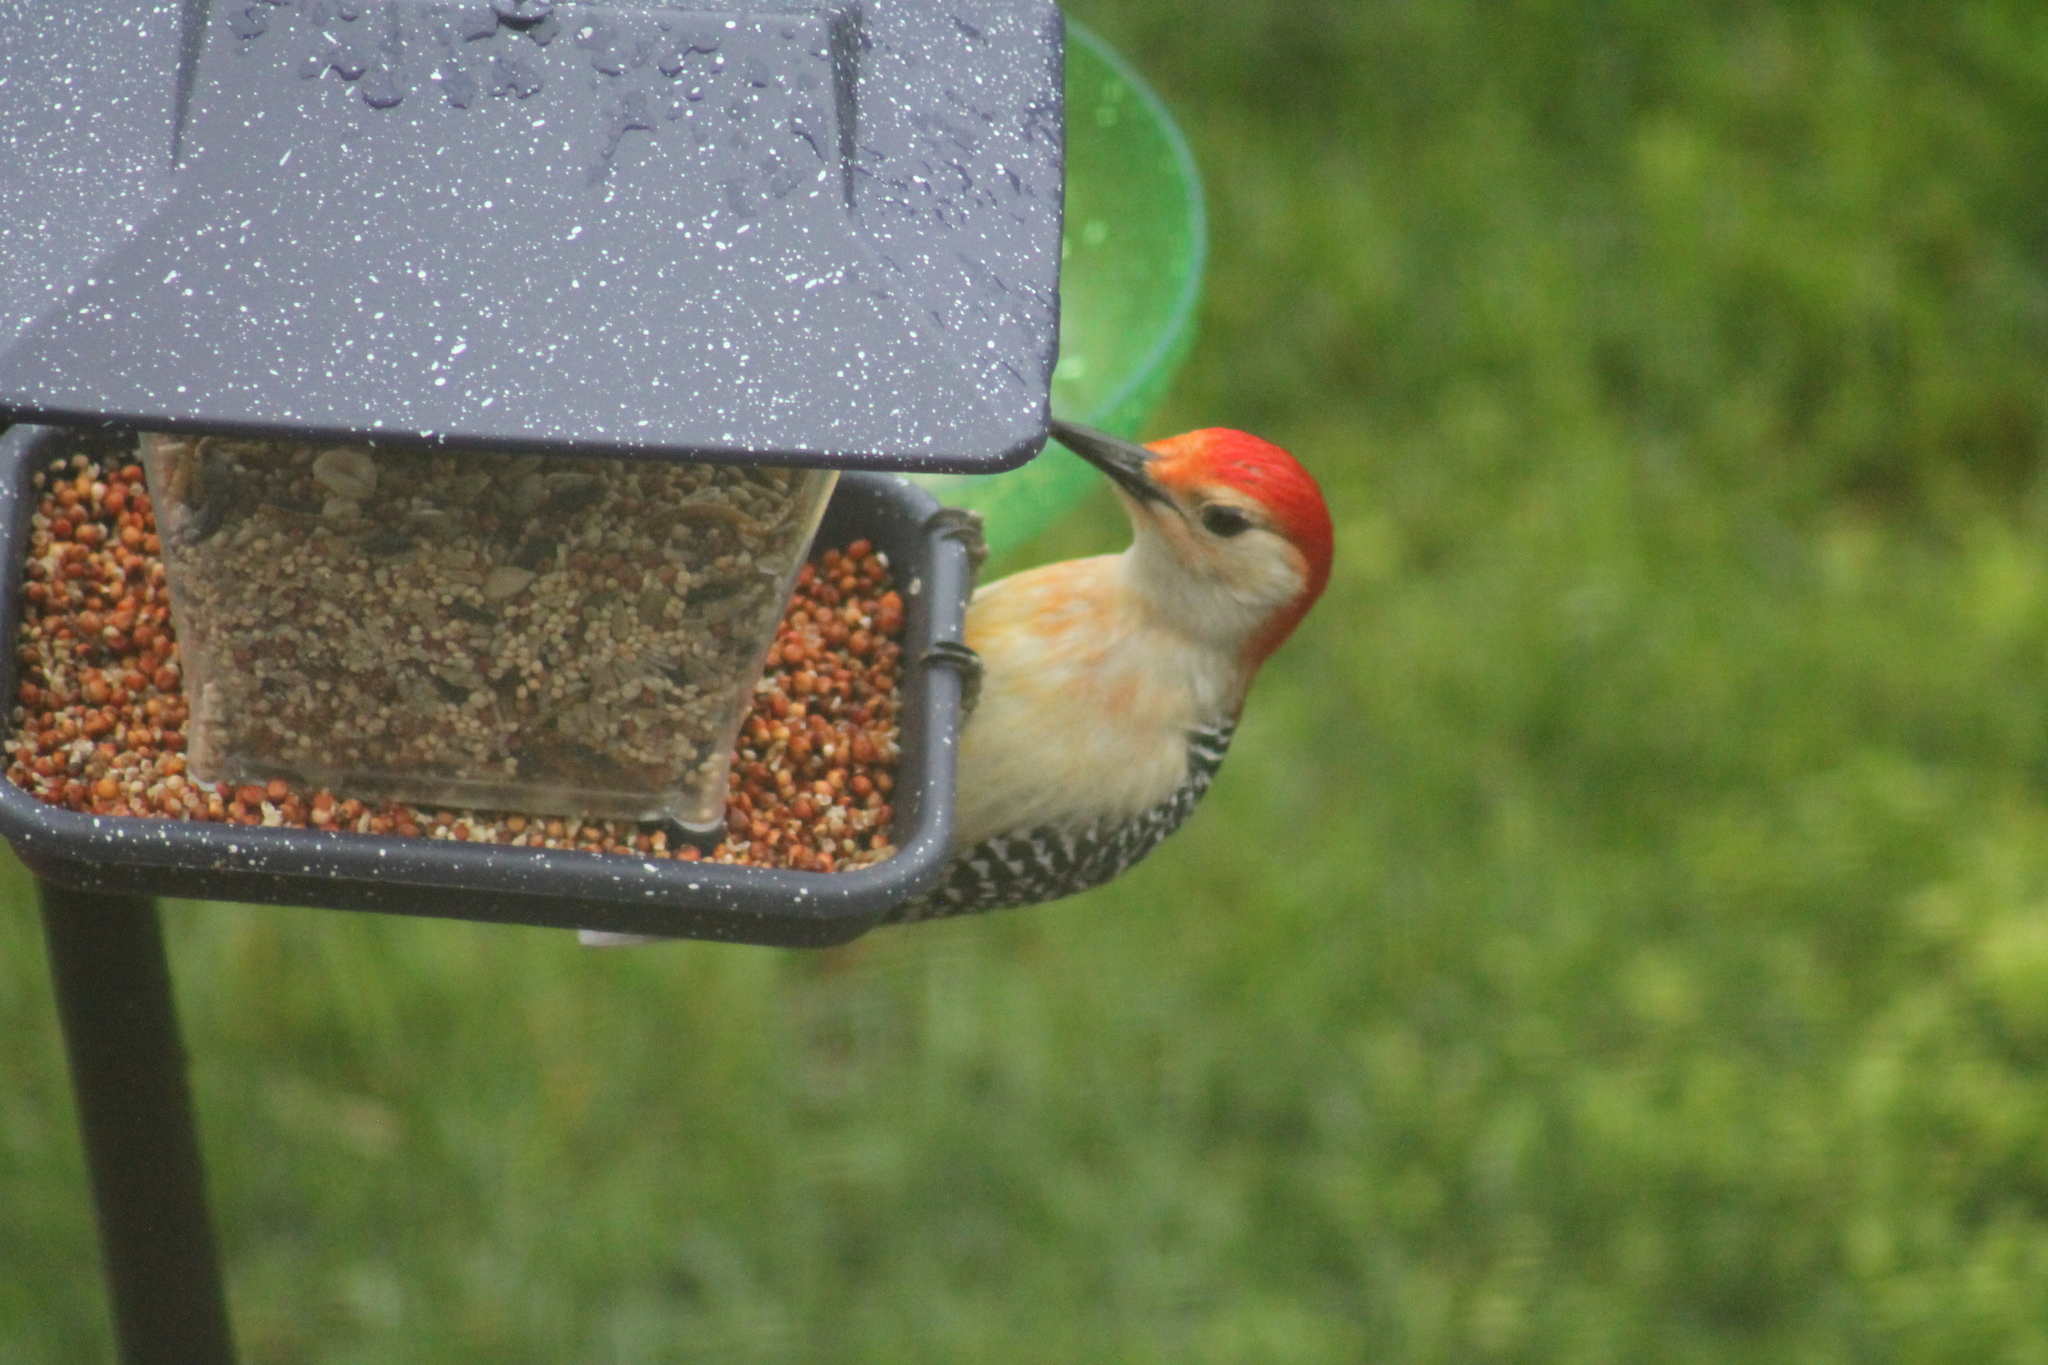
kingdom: Animalia
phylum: Chordata
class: Aves
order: Piciformes
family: Picidae
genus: Melanerpes
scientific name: Melanerpes carolinus
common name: Red-bellied woodpecker
